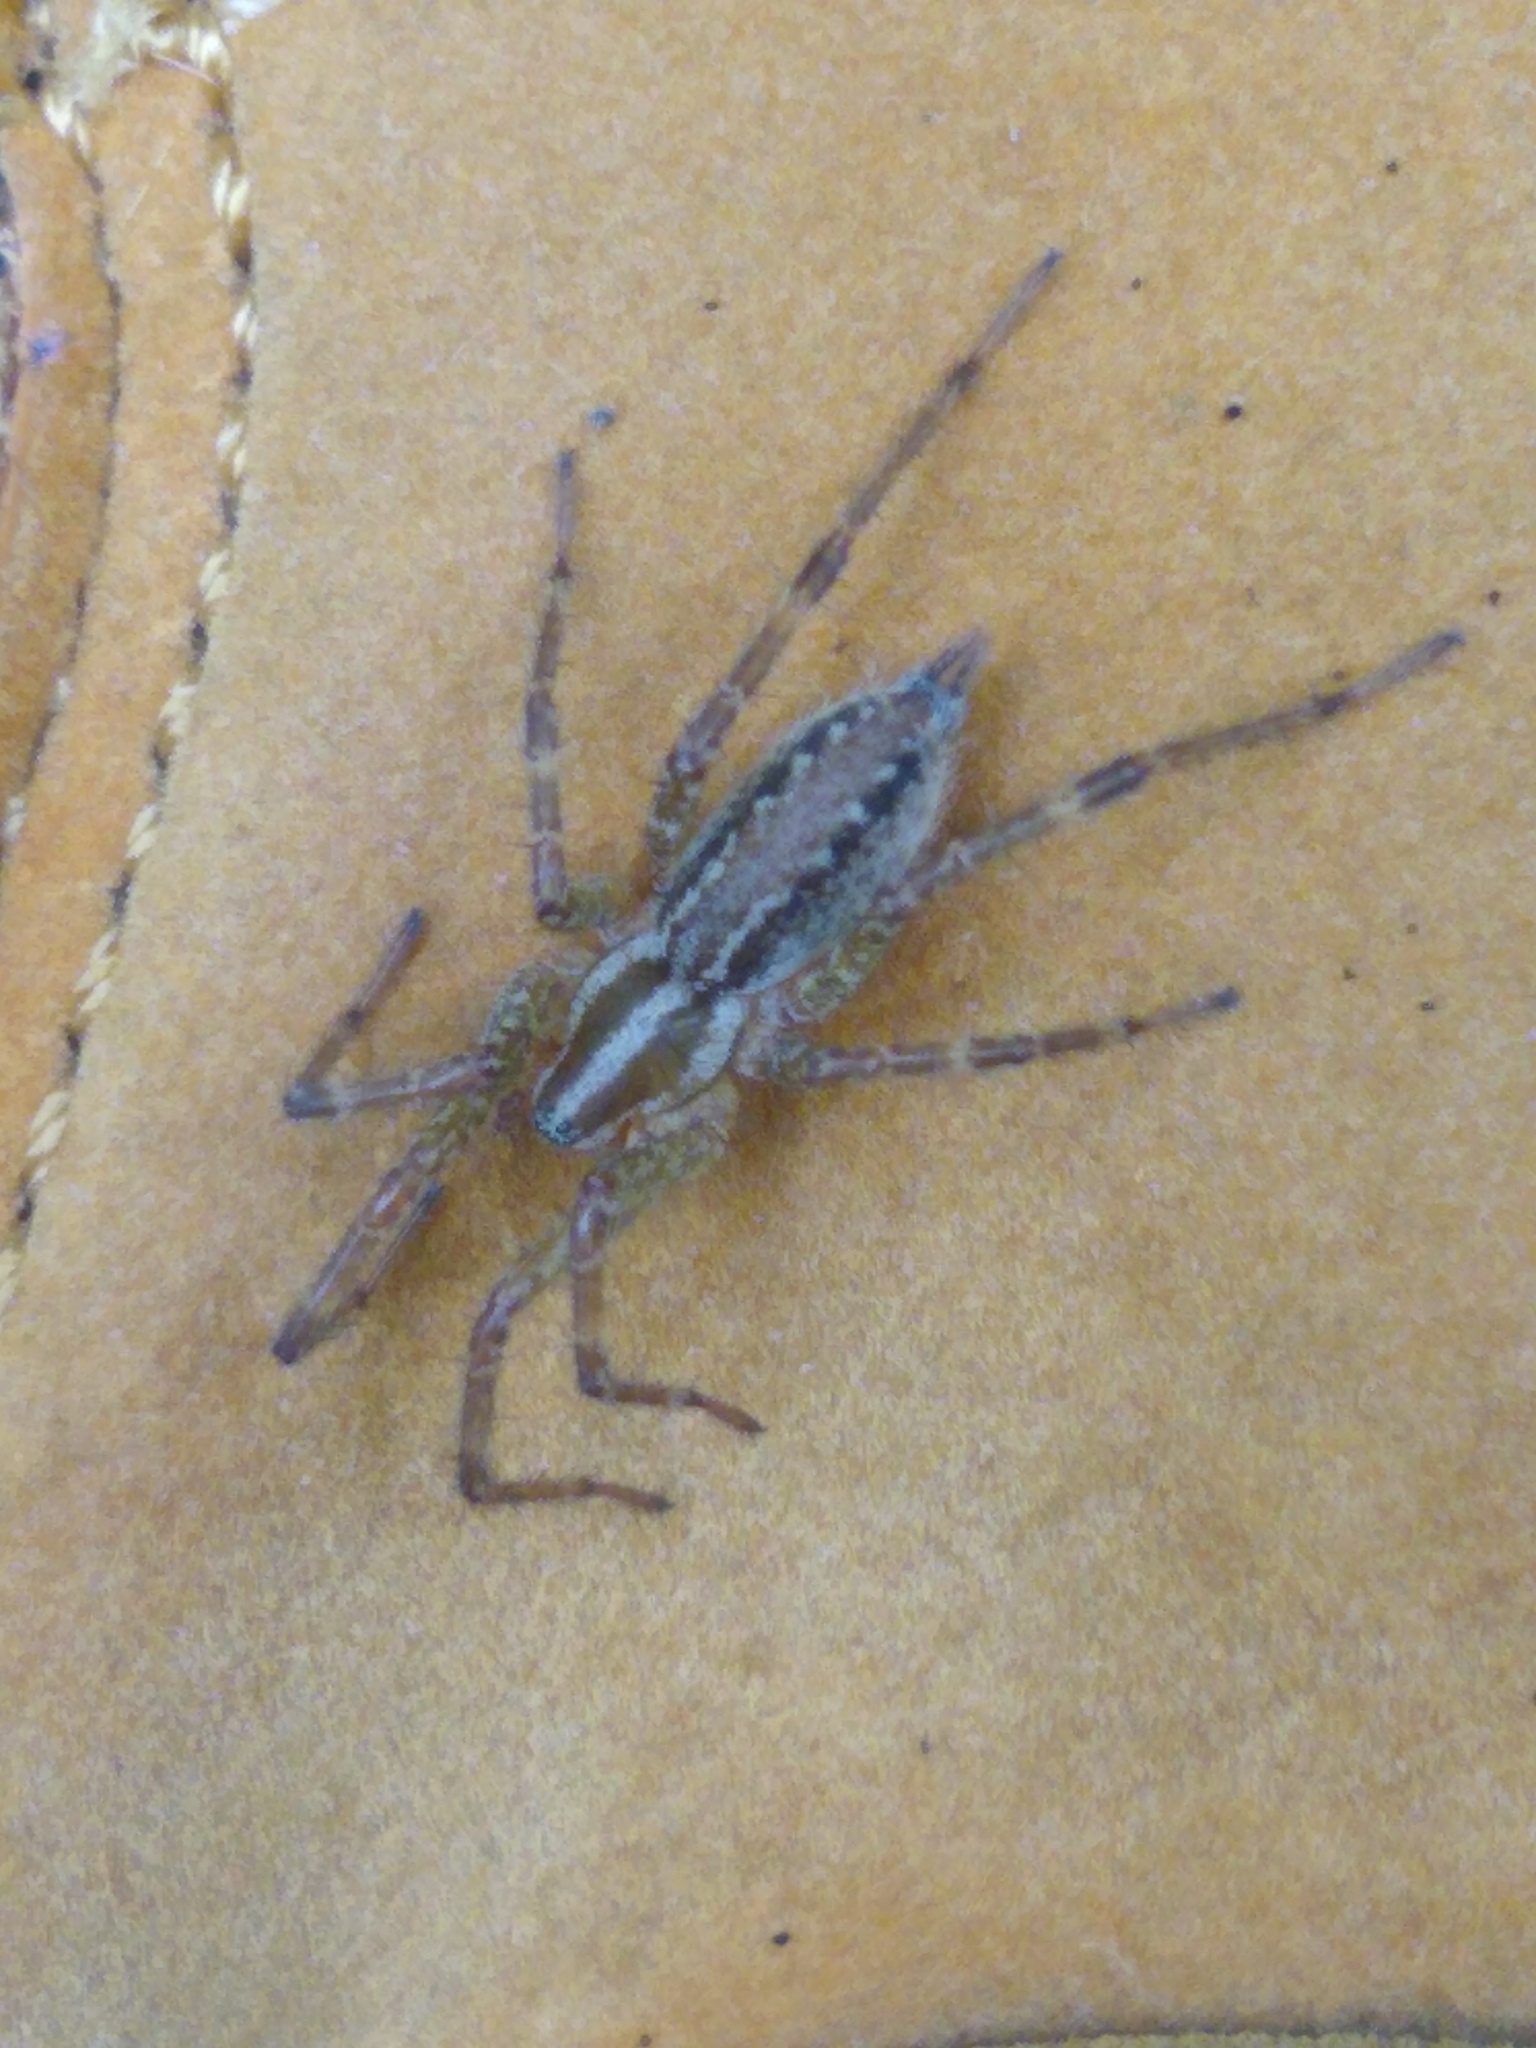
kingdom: Animalia
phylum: Arthropoda
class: Arachnida
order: Araneae
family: Agelenidae
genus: Agelenopsis
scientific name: Agelenopsis
